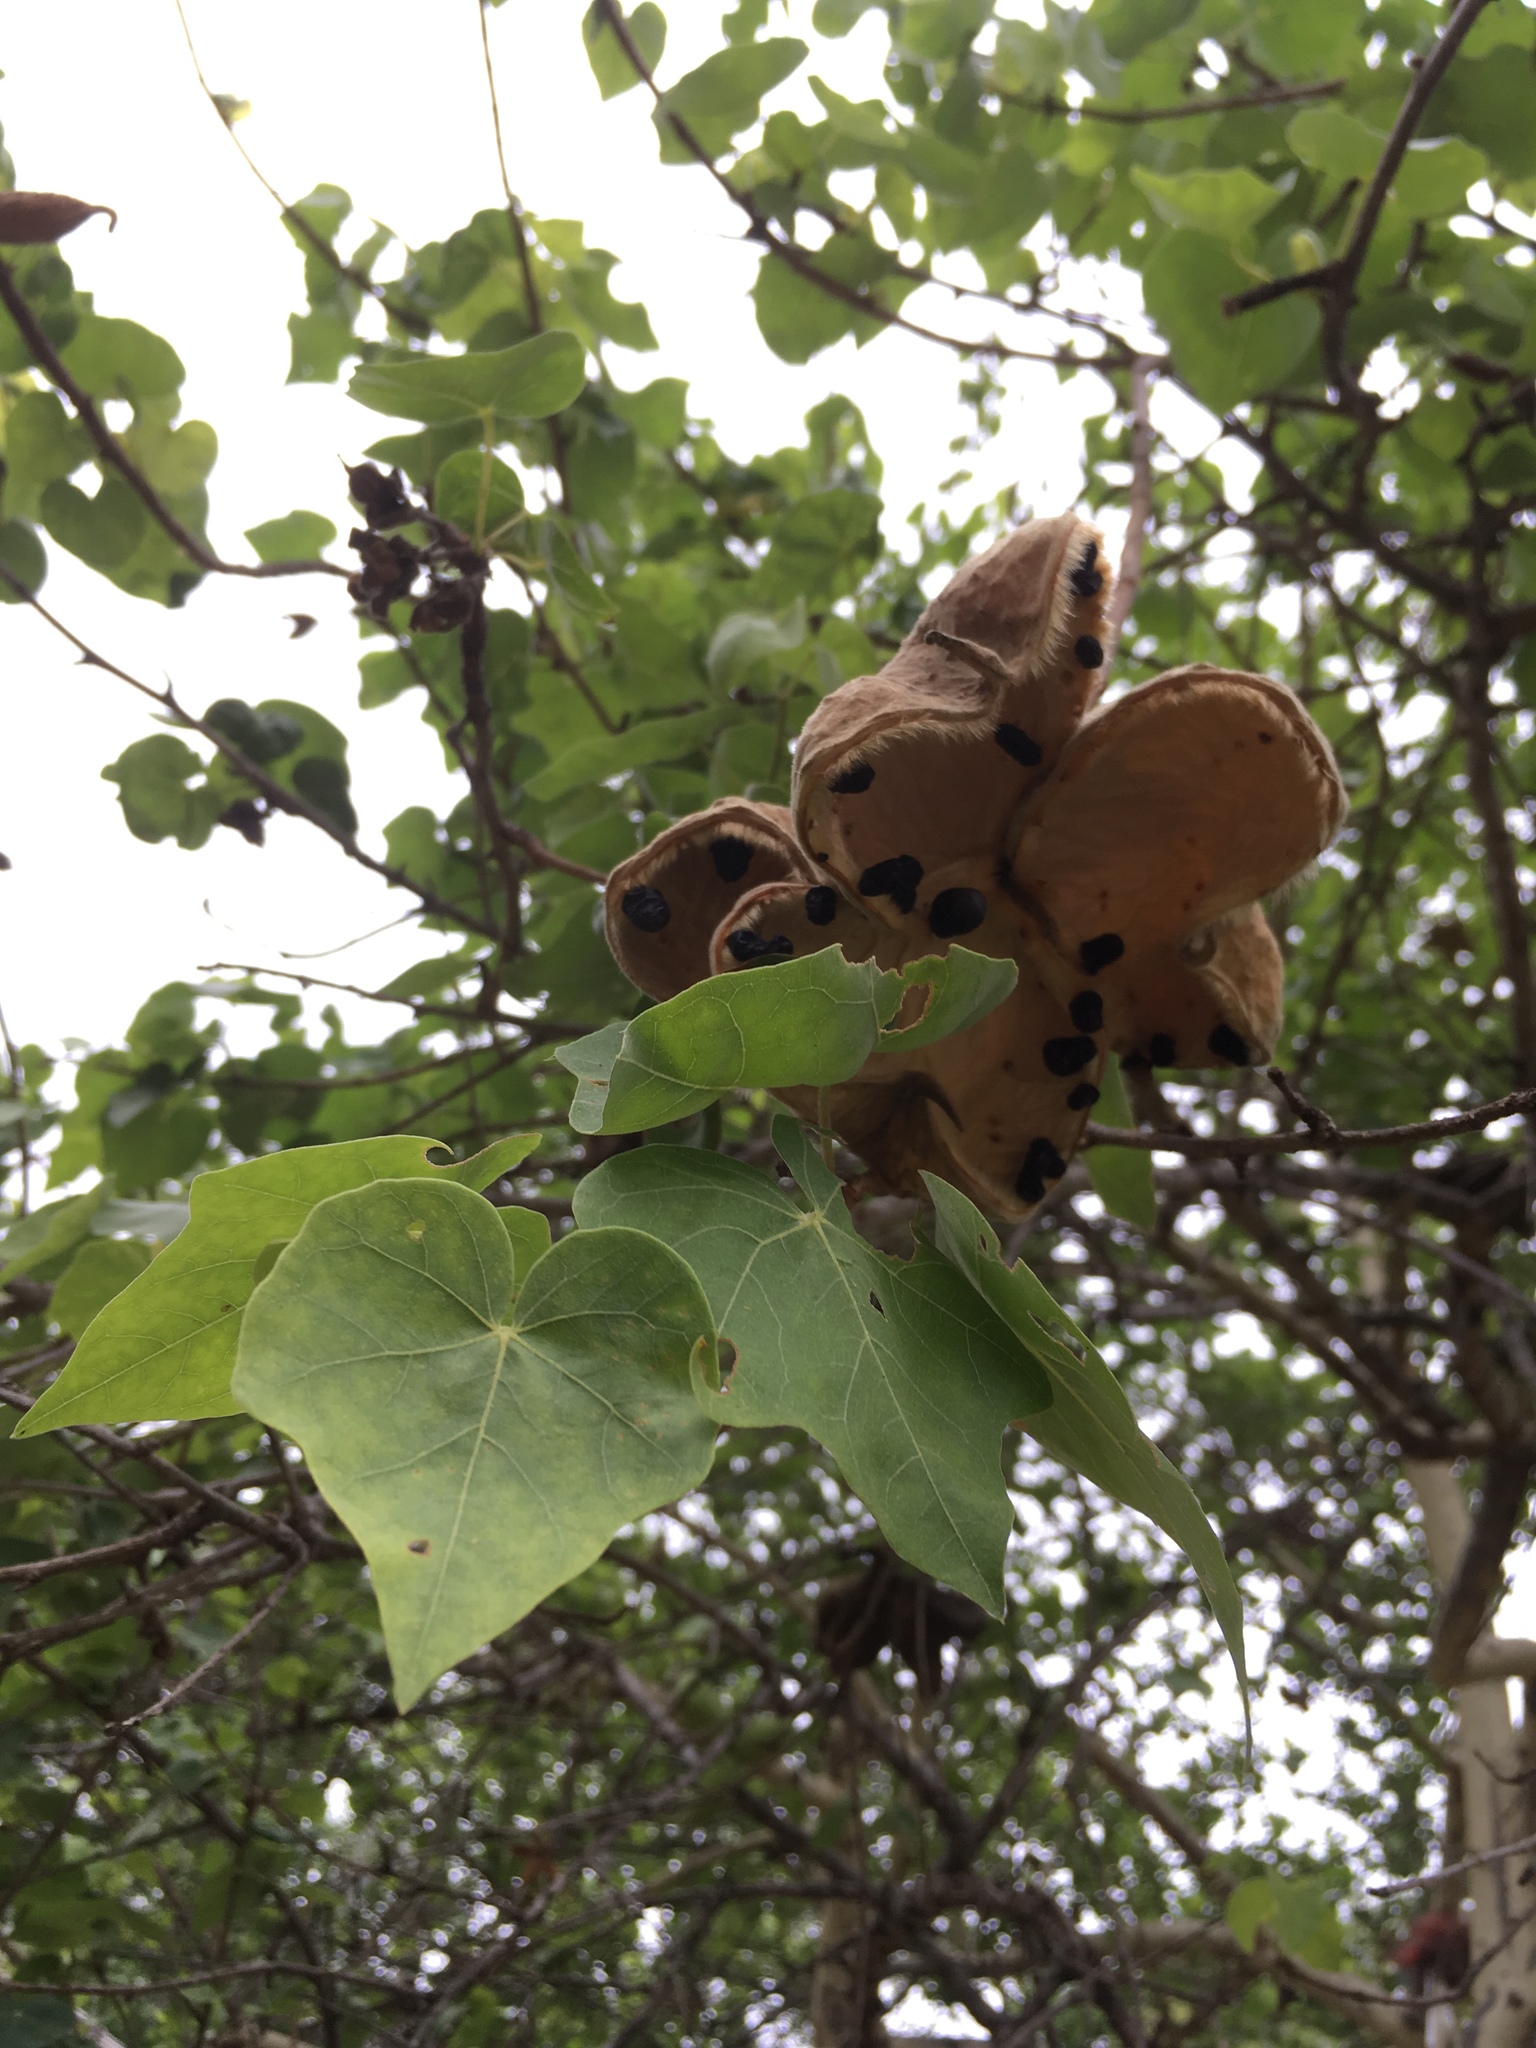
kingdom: Plantae
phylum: Tracheophyta
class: Magnoliopsida
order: Malvales
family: Malvaceae
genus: Sterculia
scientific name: Sterculia rogersii
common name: Star-chestnut
